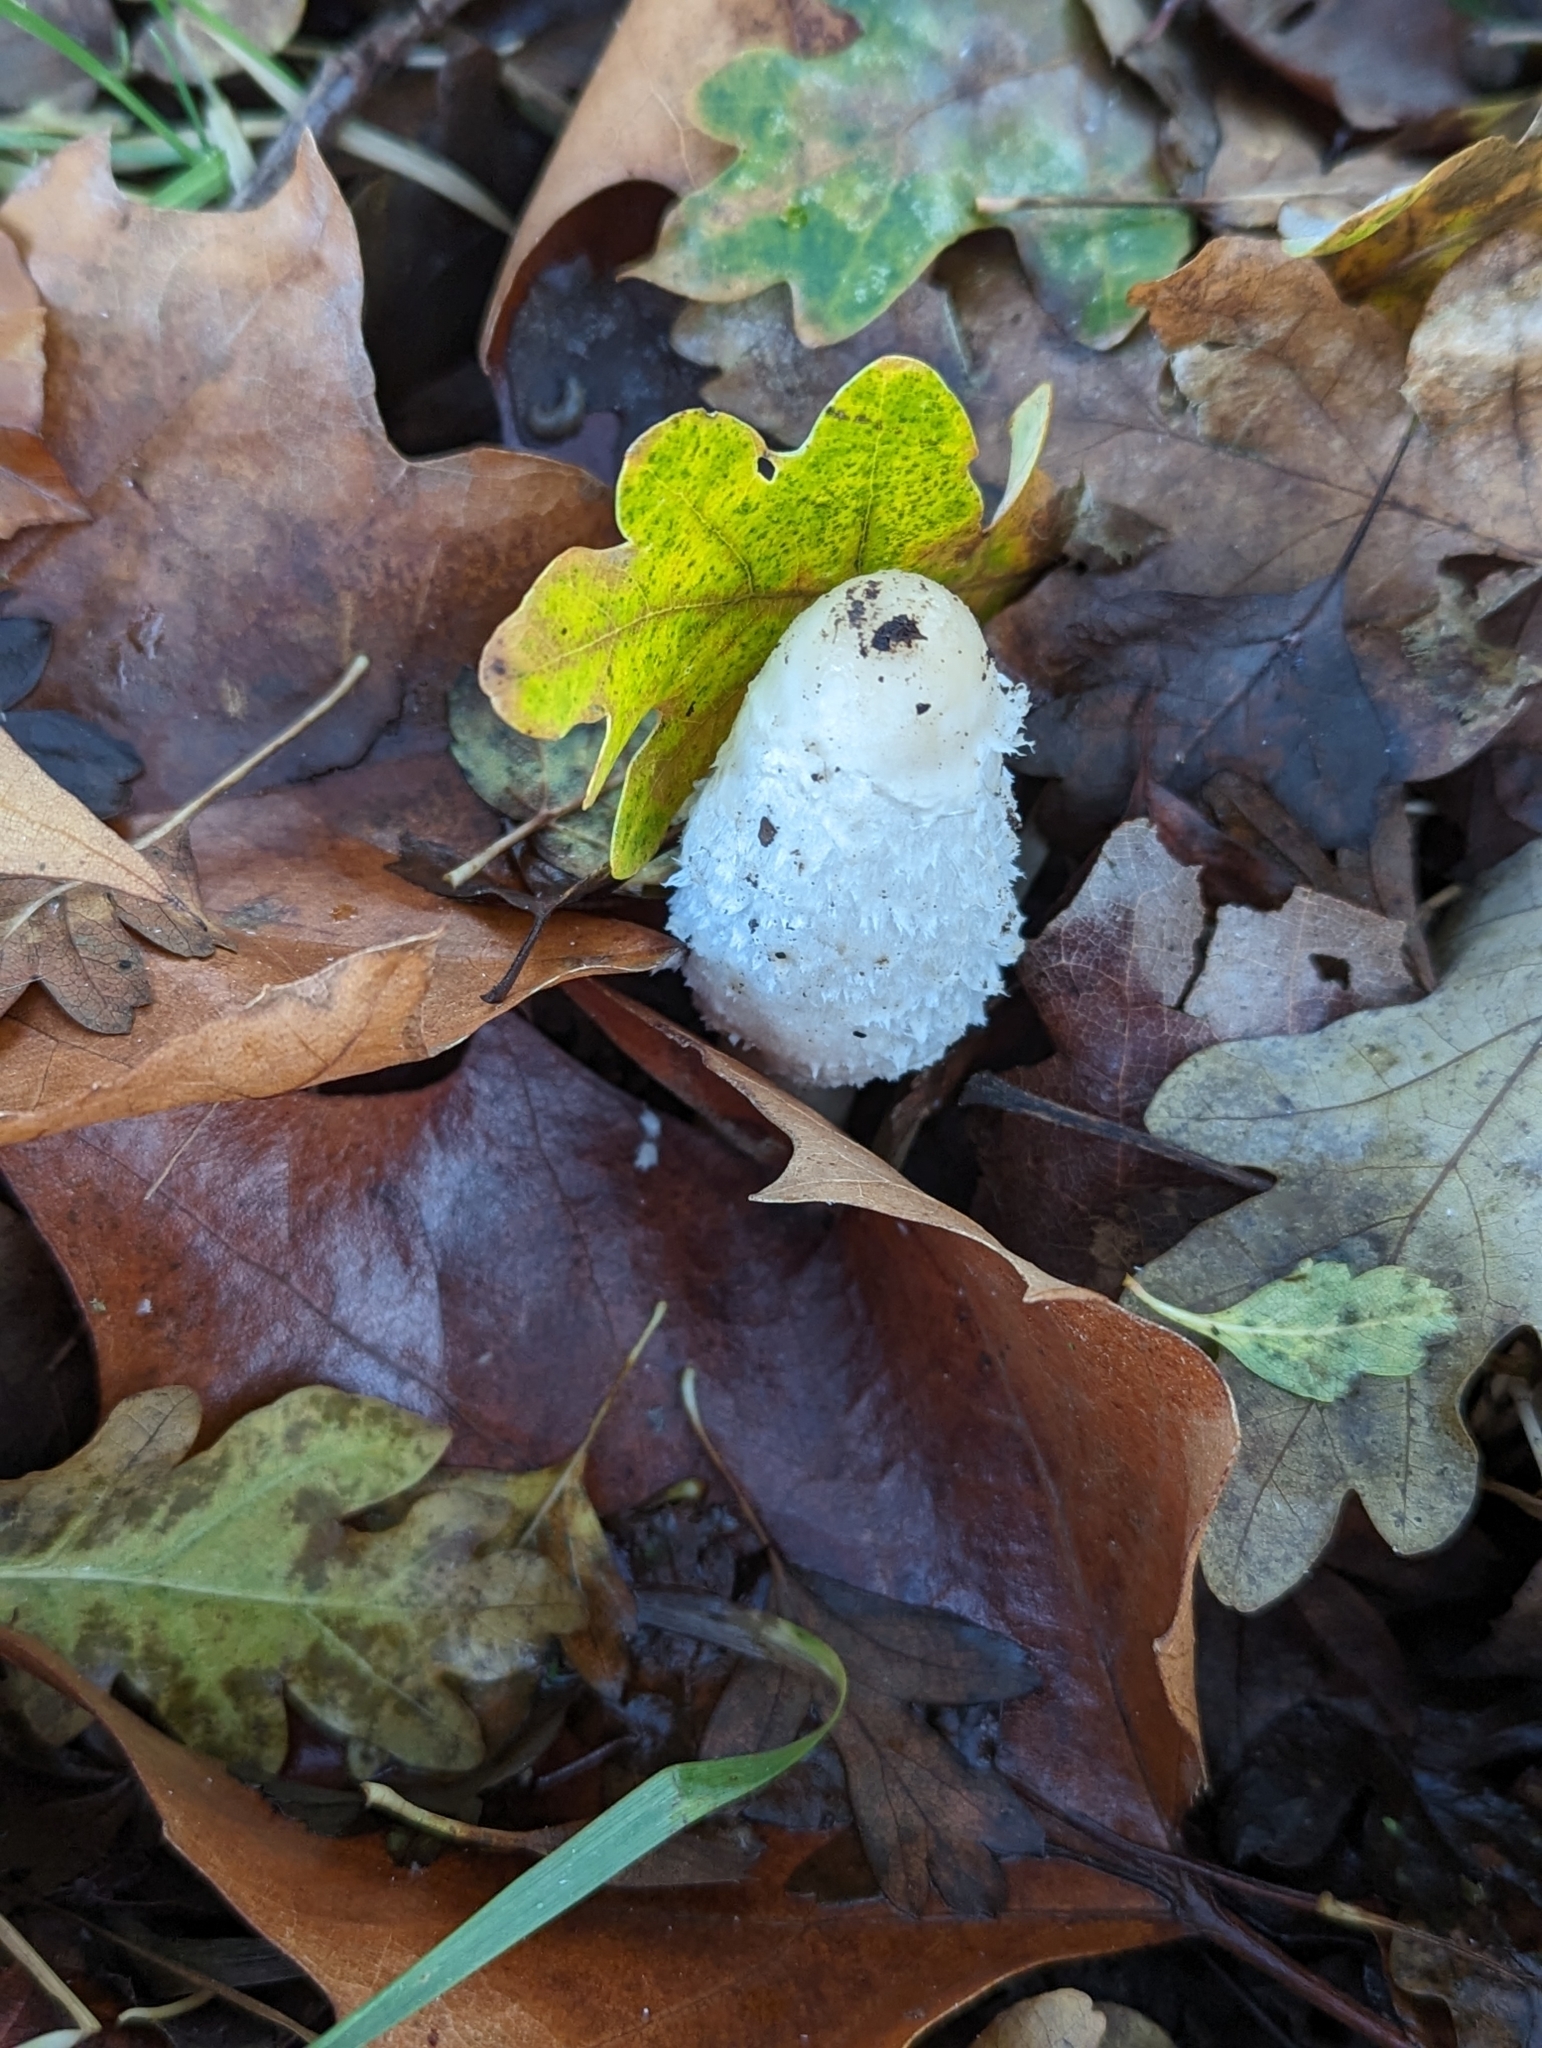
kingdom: Fungi
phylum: Basidiomycota
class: Agaricomycetes
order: Agaricales
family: Agaricaceae
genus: Coprinus
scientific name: Coprinus comatus
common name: Lawyer's wig
